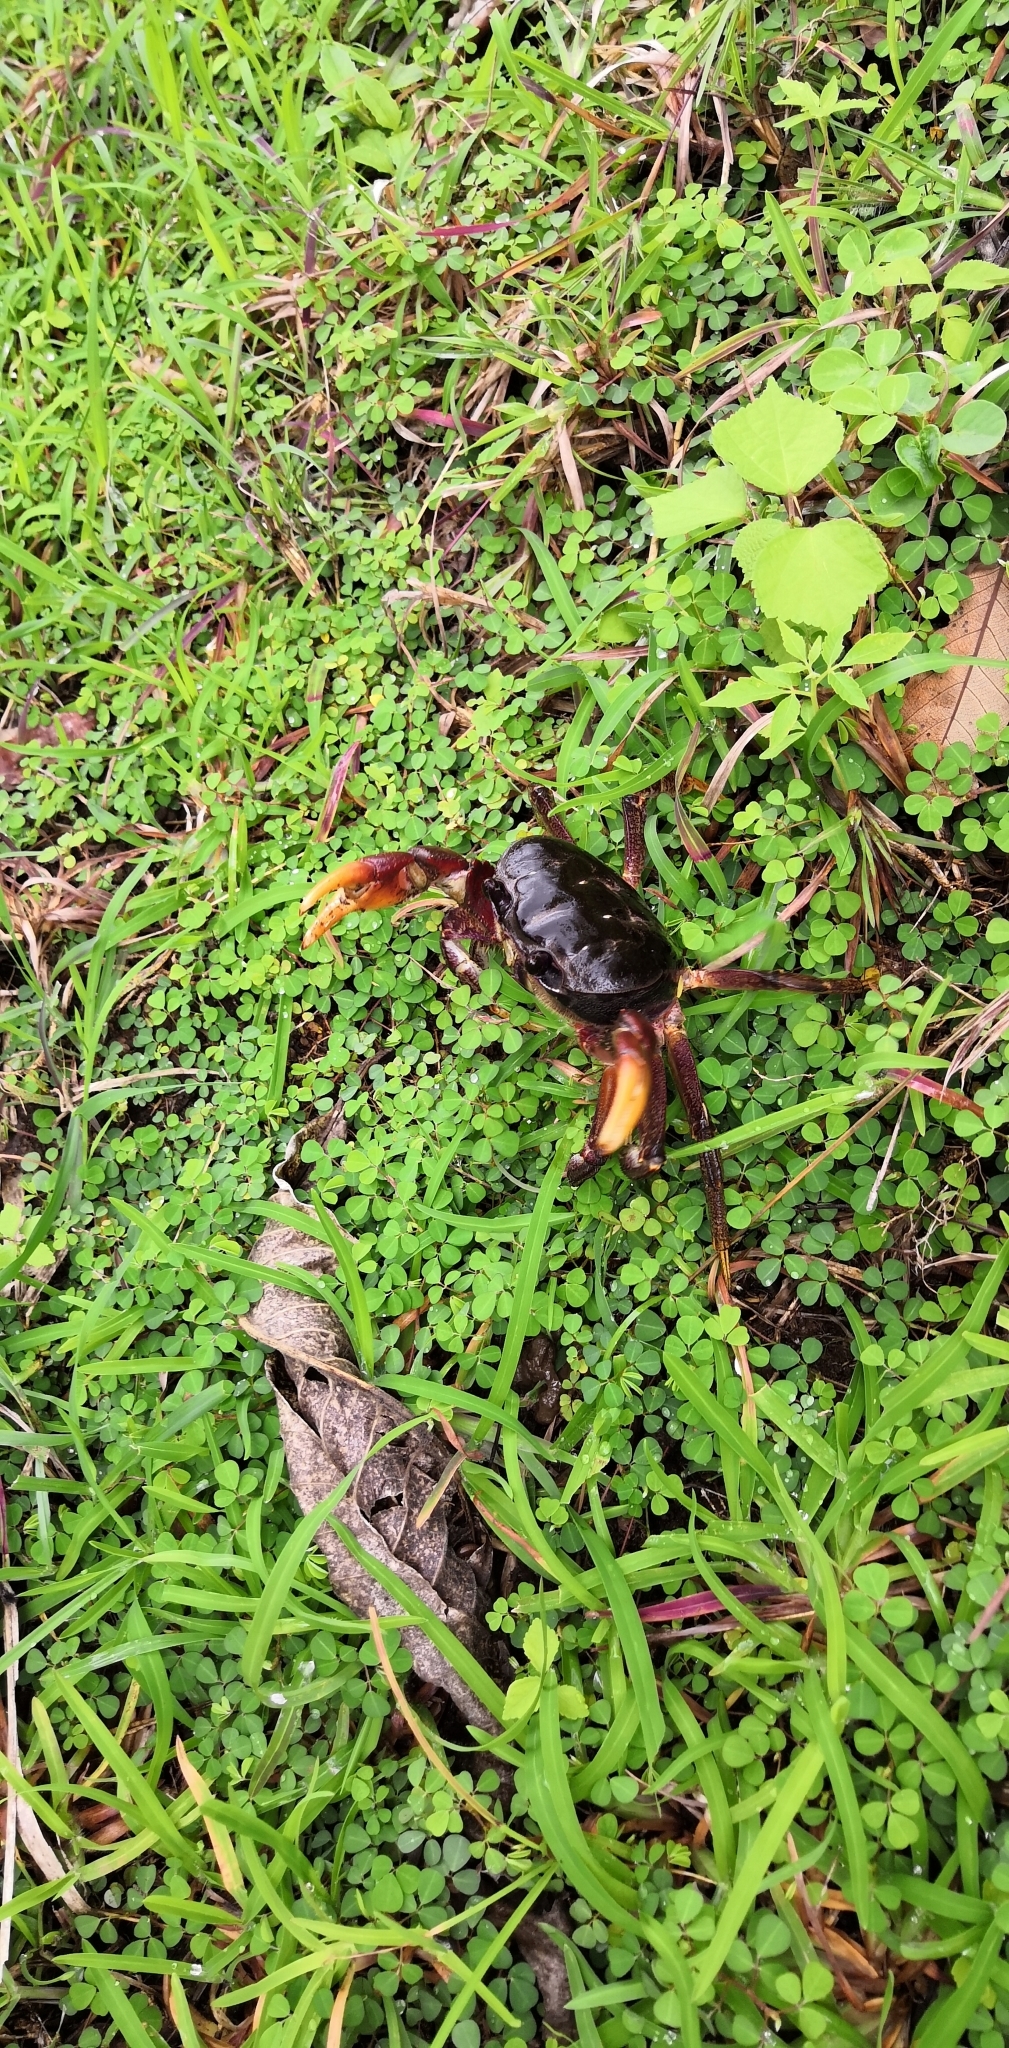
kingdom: Animalia
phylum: Arthropoda
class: Malacostraca
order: Decapoda
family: Gecarcinidae
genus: Tuerkayana
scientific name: Tuerkayana hirtipes
